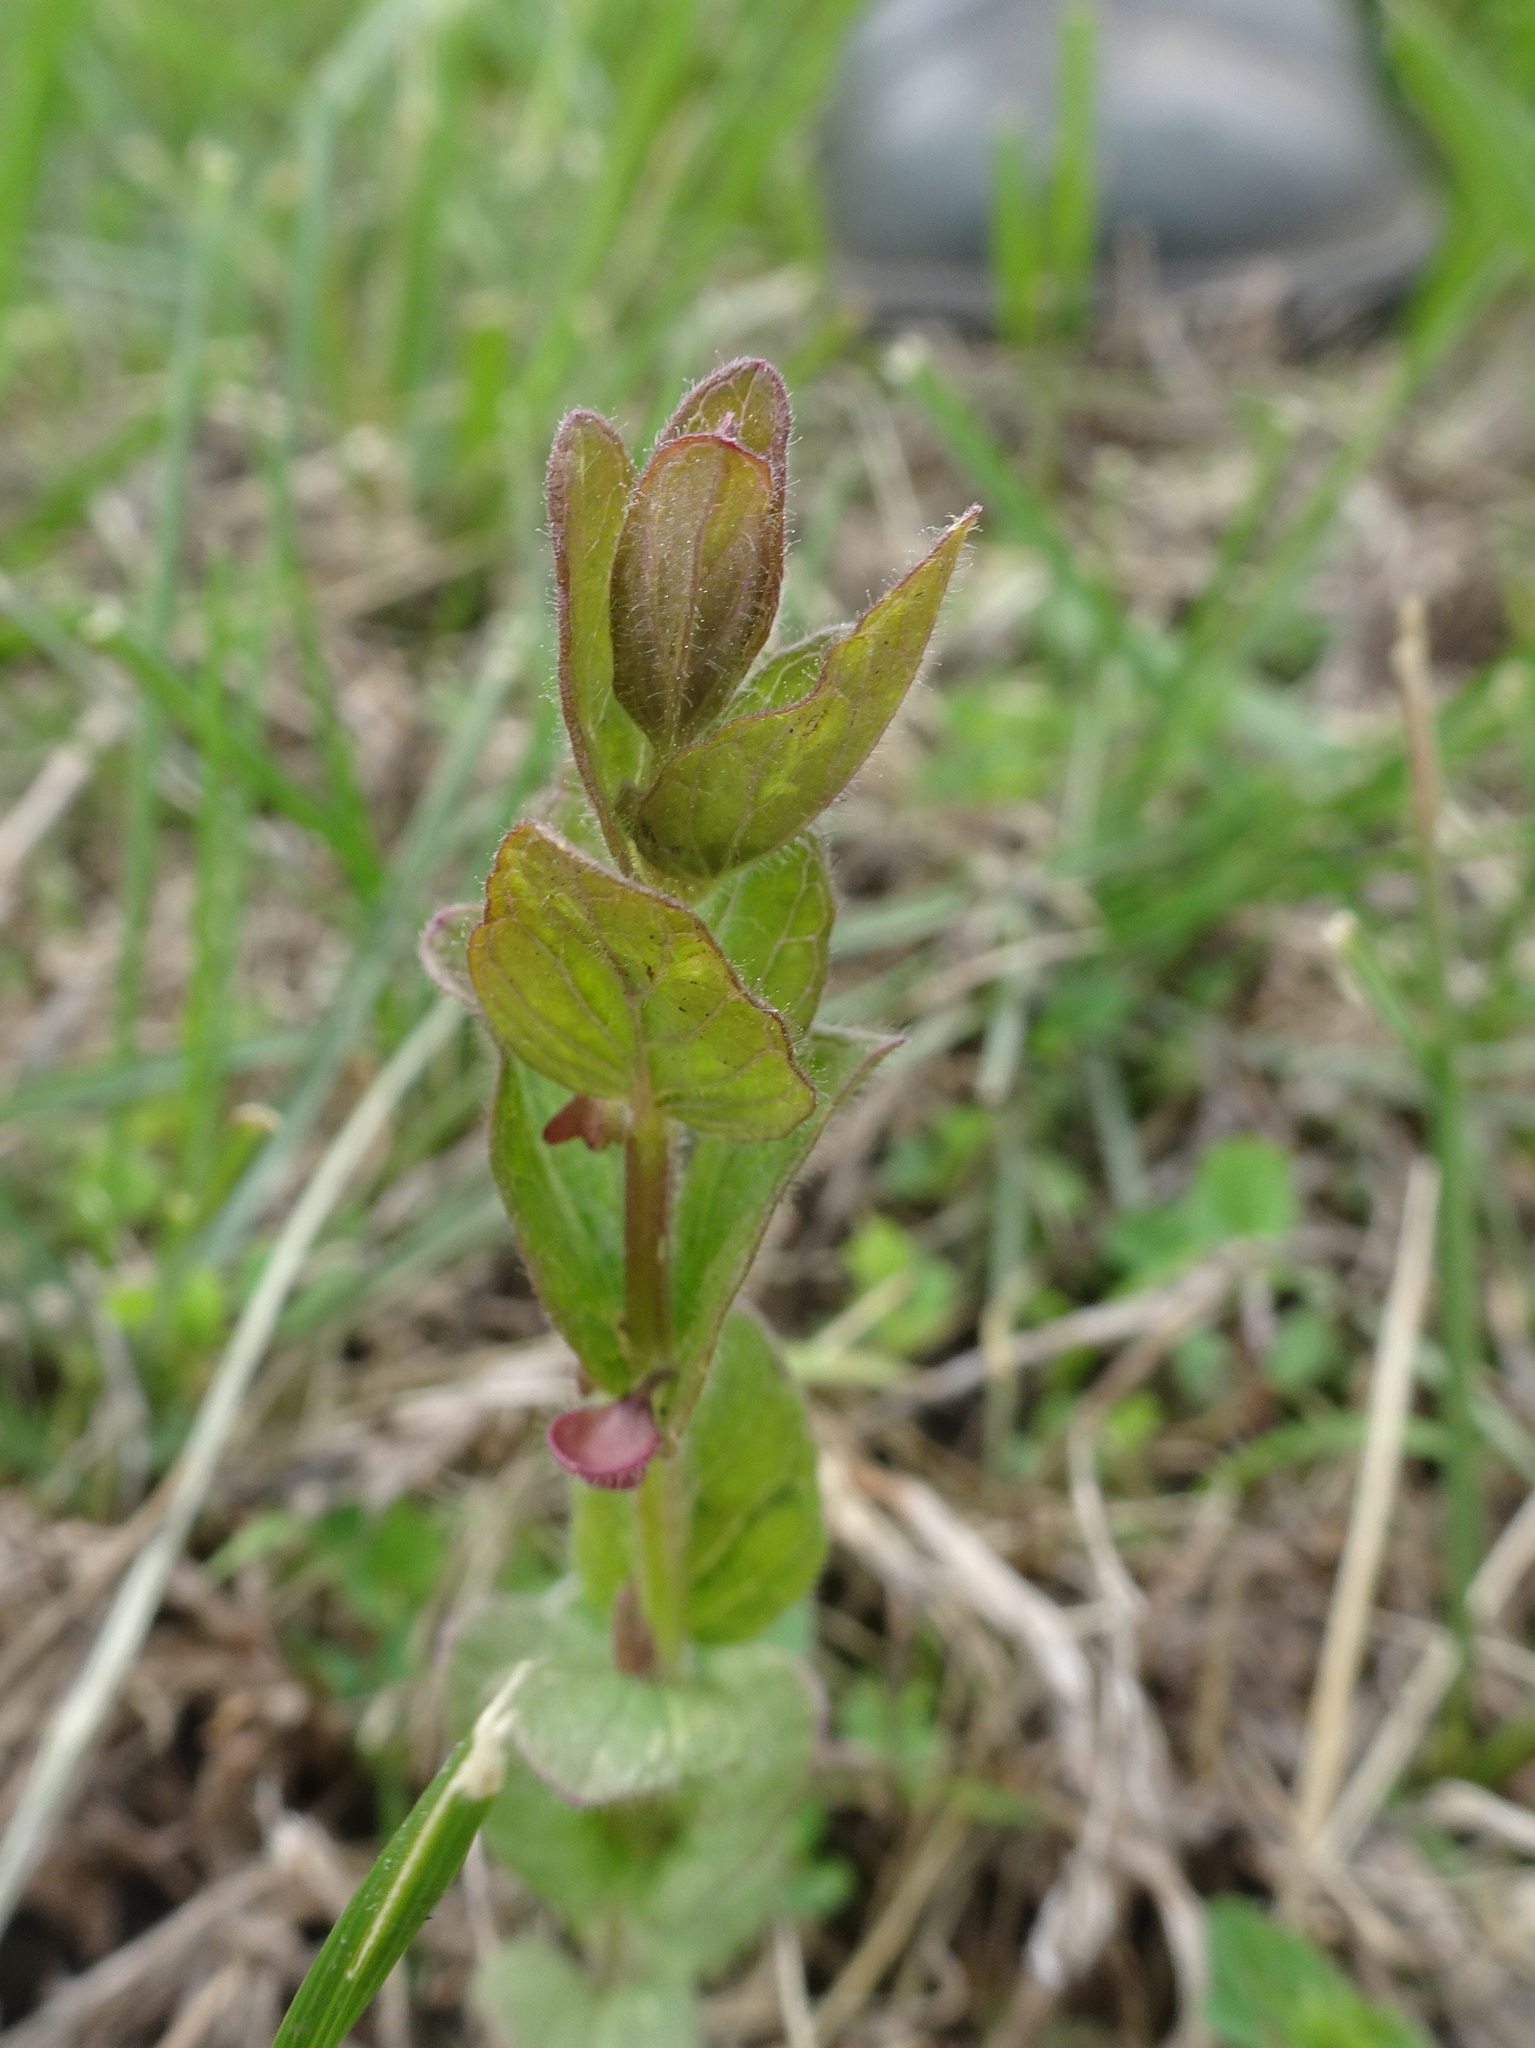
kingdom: Plantae
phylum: Tracheophyta
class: Magnoliopsida
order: Lamiales
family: Lamiaceae
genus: Scutellaria
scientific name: Scutellaria parvula
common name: Little scullcap
